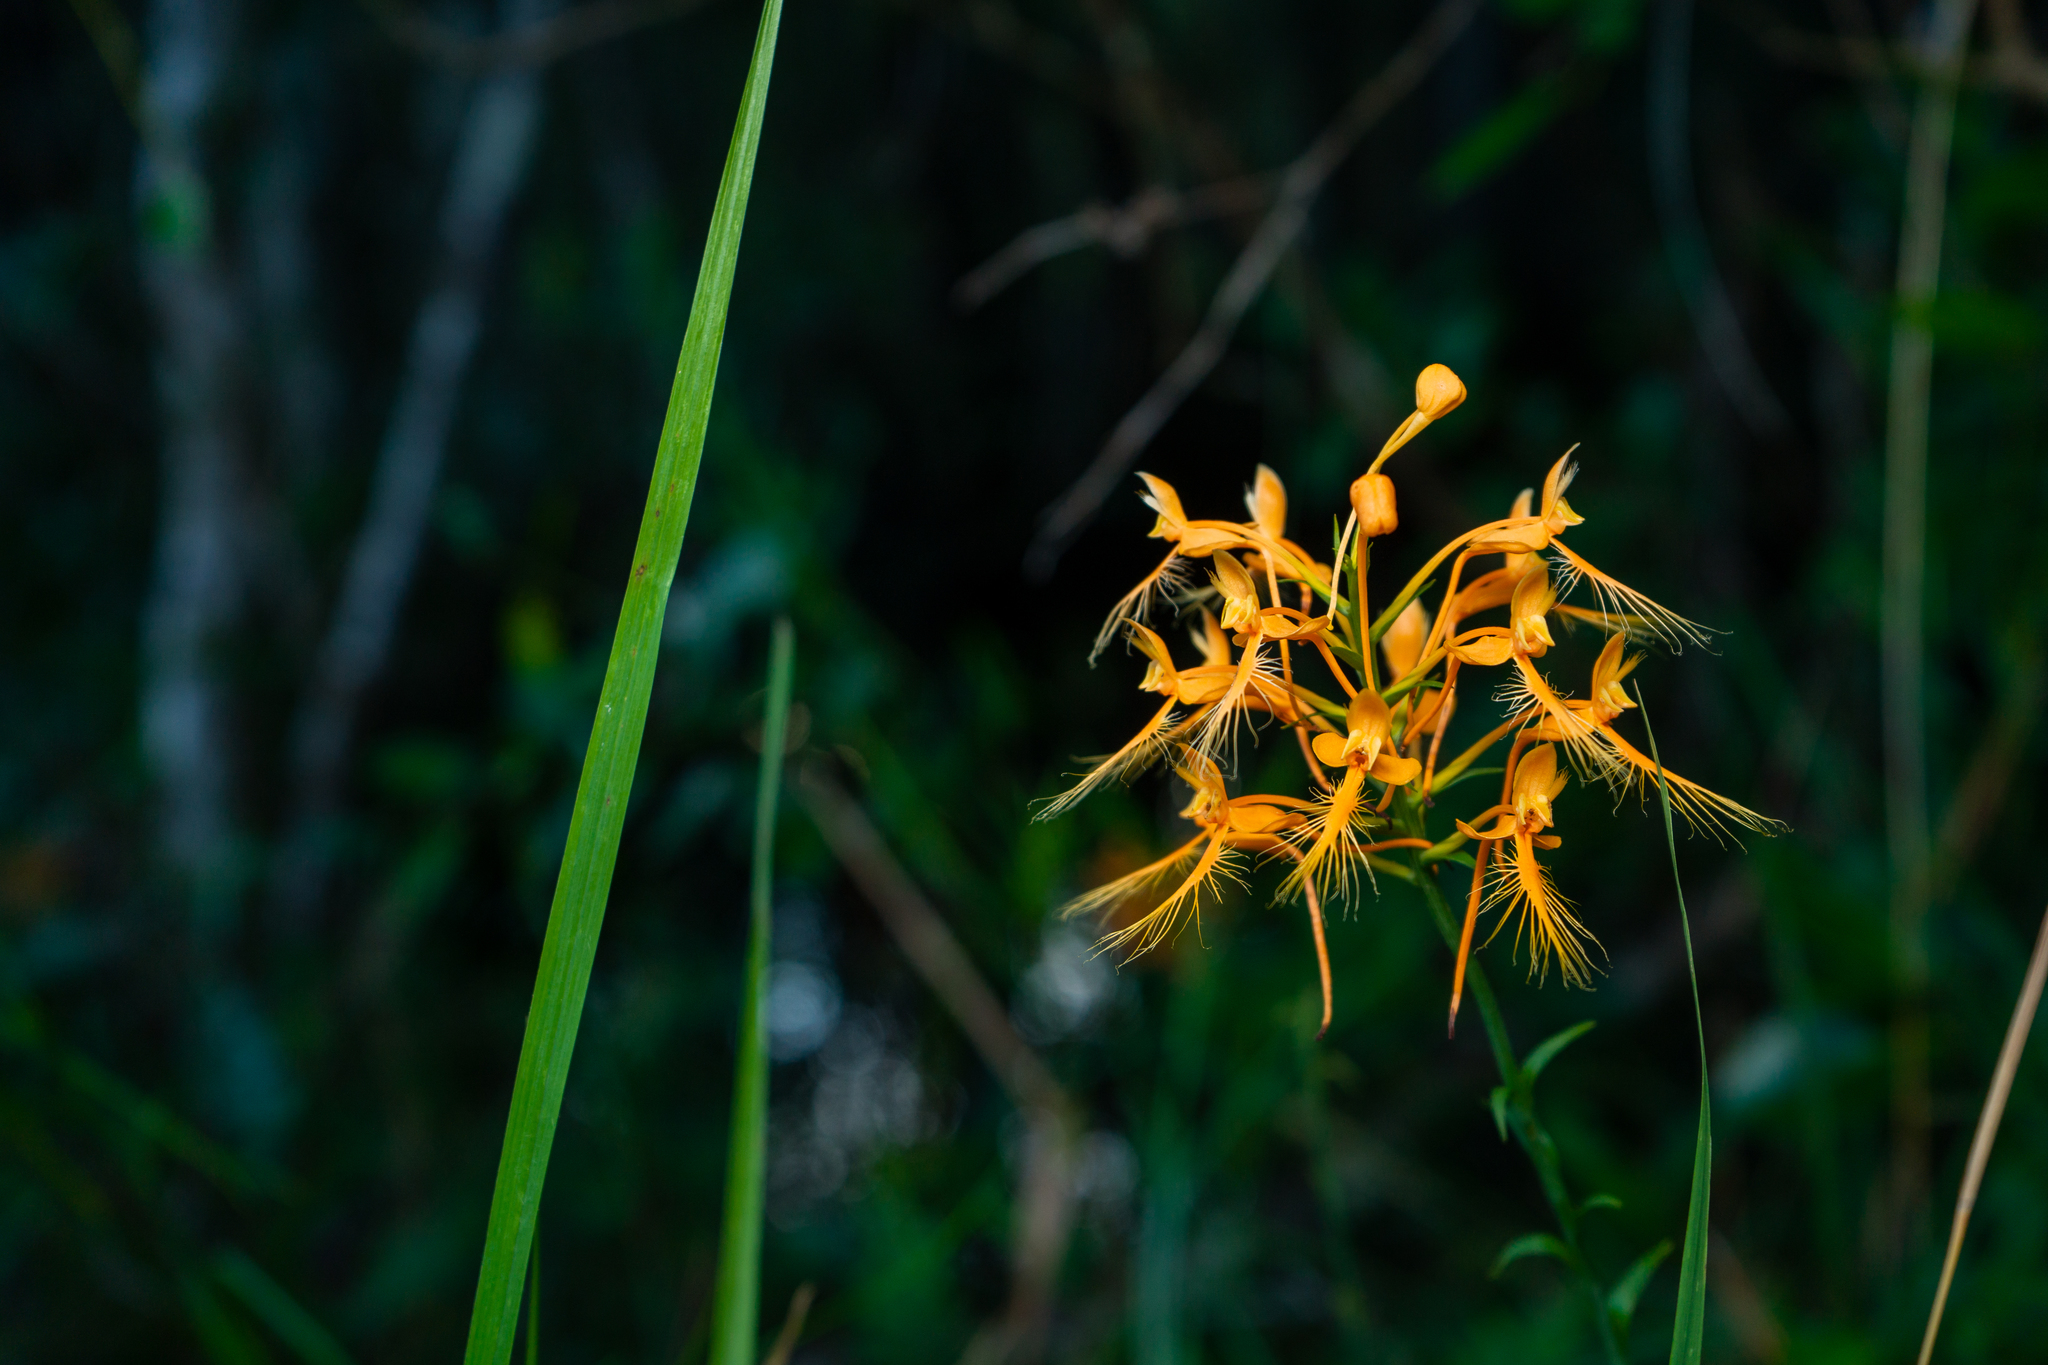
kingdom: Plantae
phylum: Tracheophyta
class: Liliopsida
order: Asparagales
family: Orchidaceae
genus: Platanthera
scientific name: Platanthera ciliaris
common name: Yellow fringed orchid
